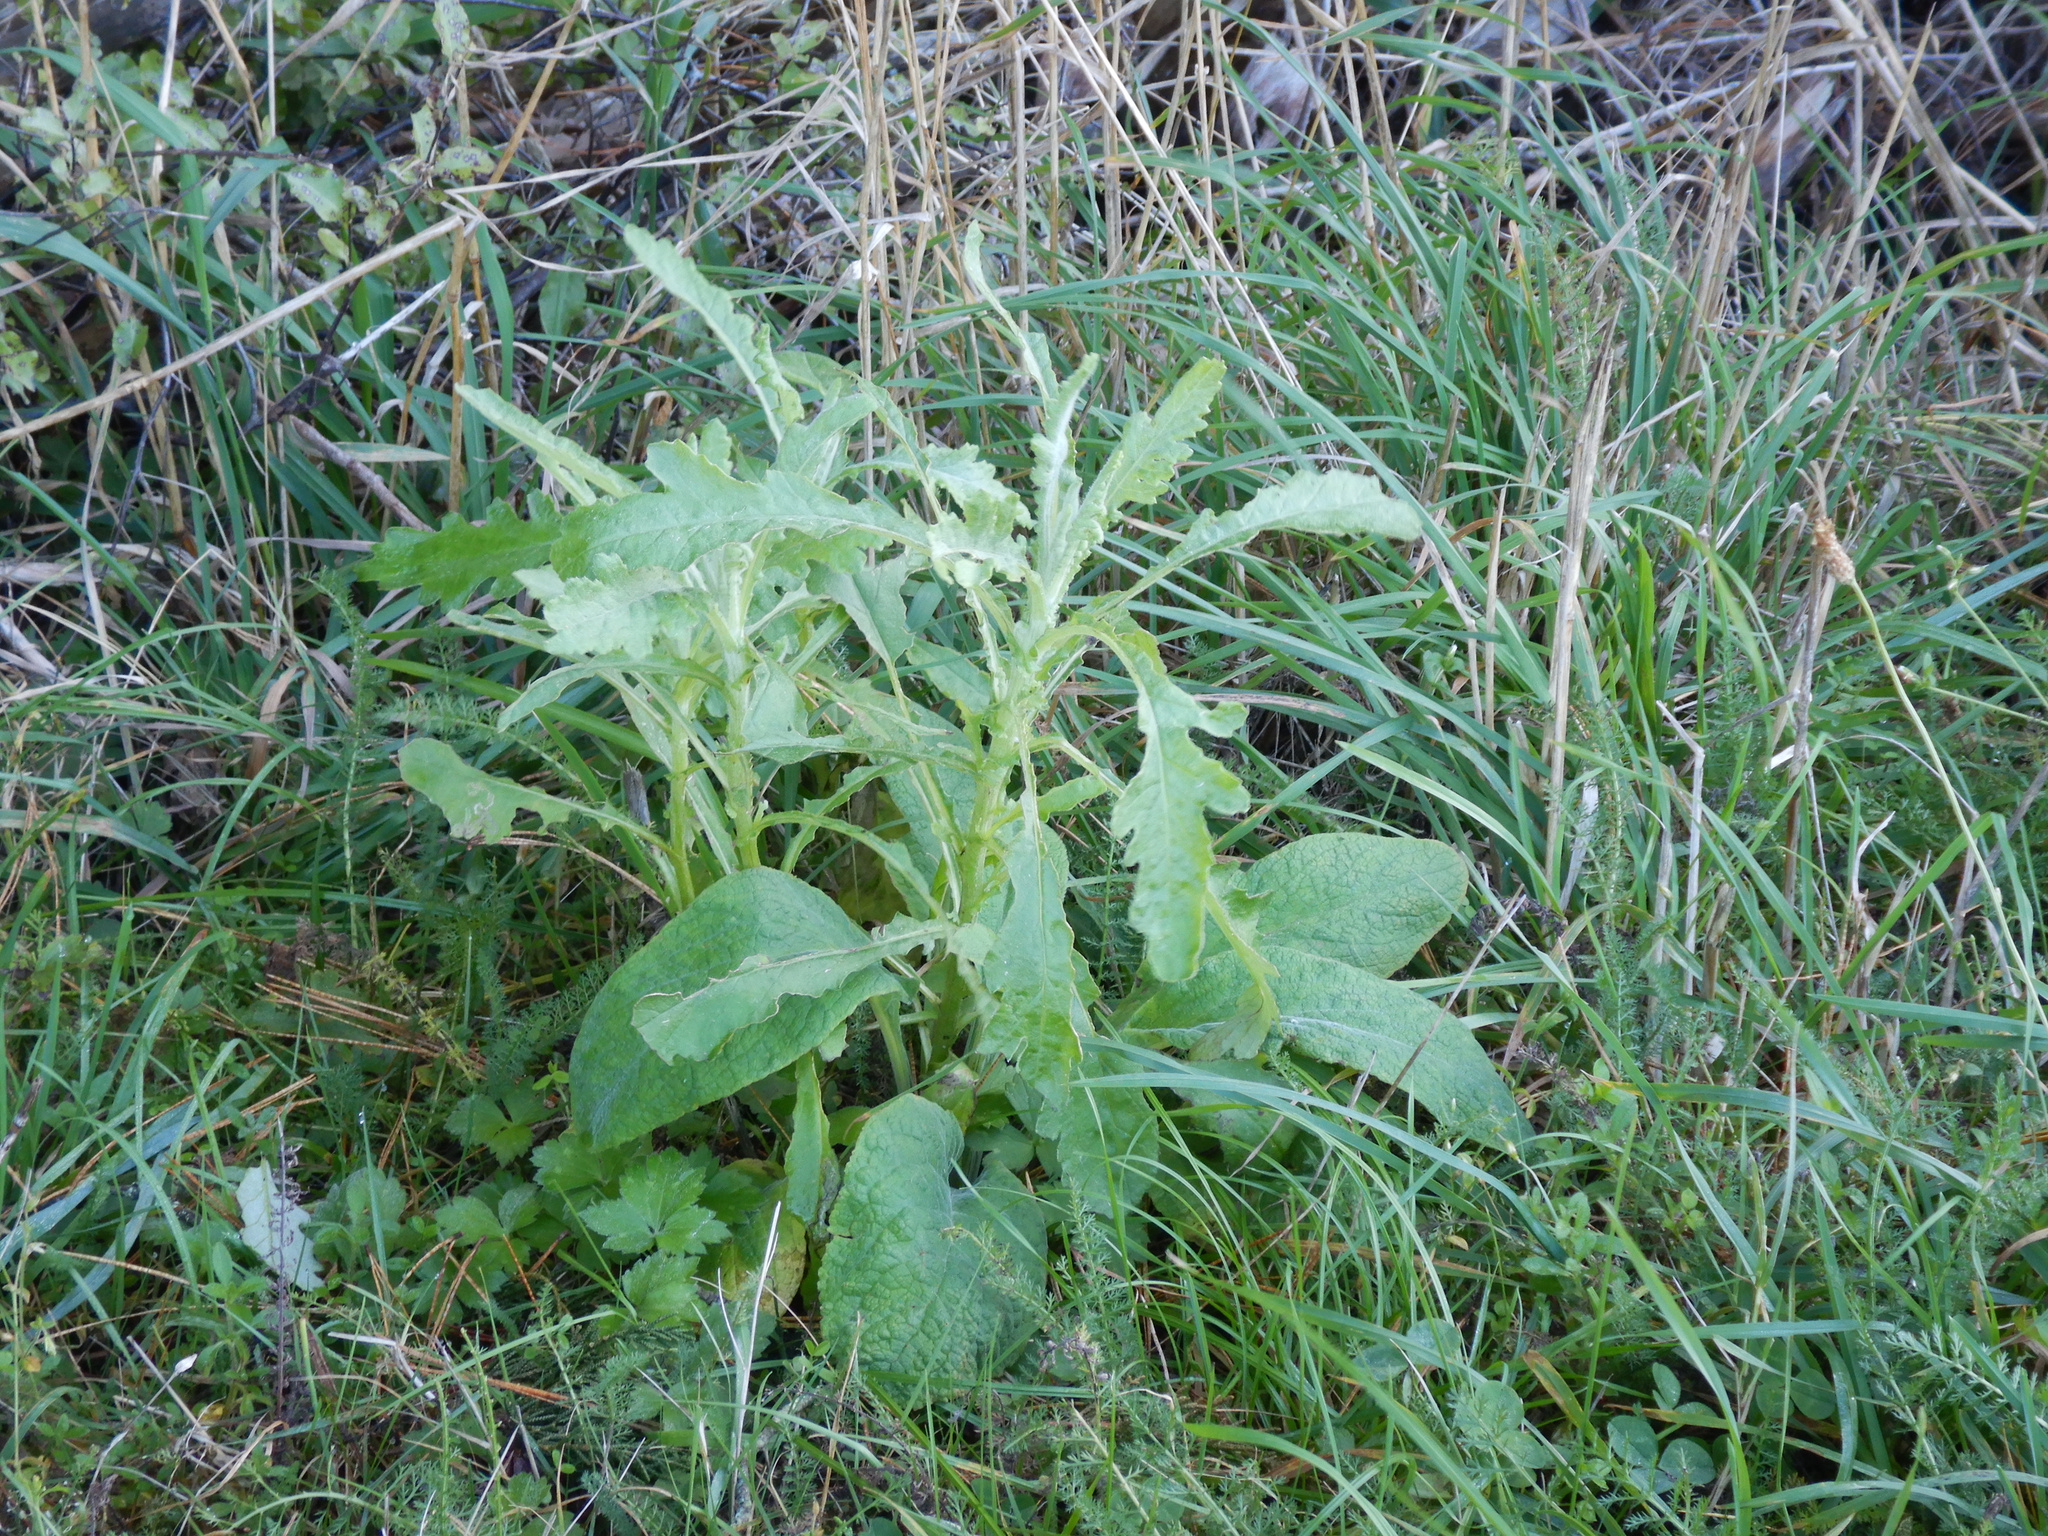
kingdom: Plantae
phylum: Tracheophyta
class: Magnoliopsida
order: Asterales
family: Asteraceae
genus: Senecio
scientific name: Senecio glomeratus
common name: Cutleaf burnweed
